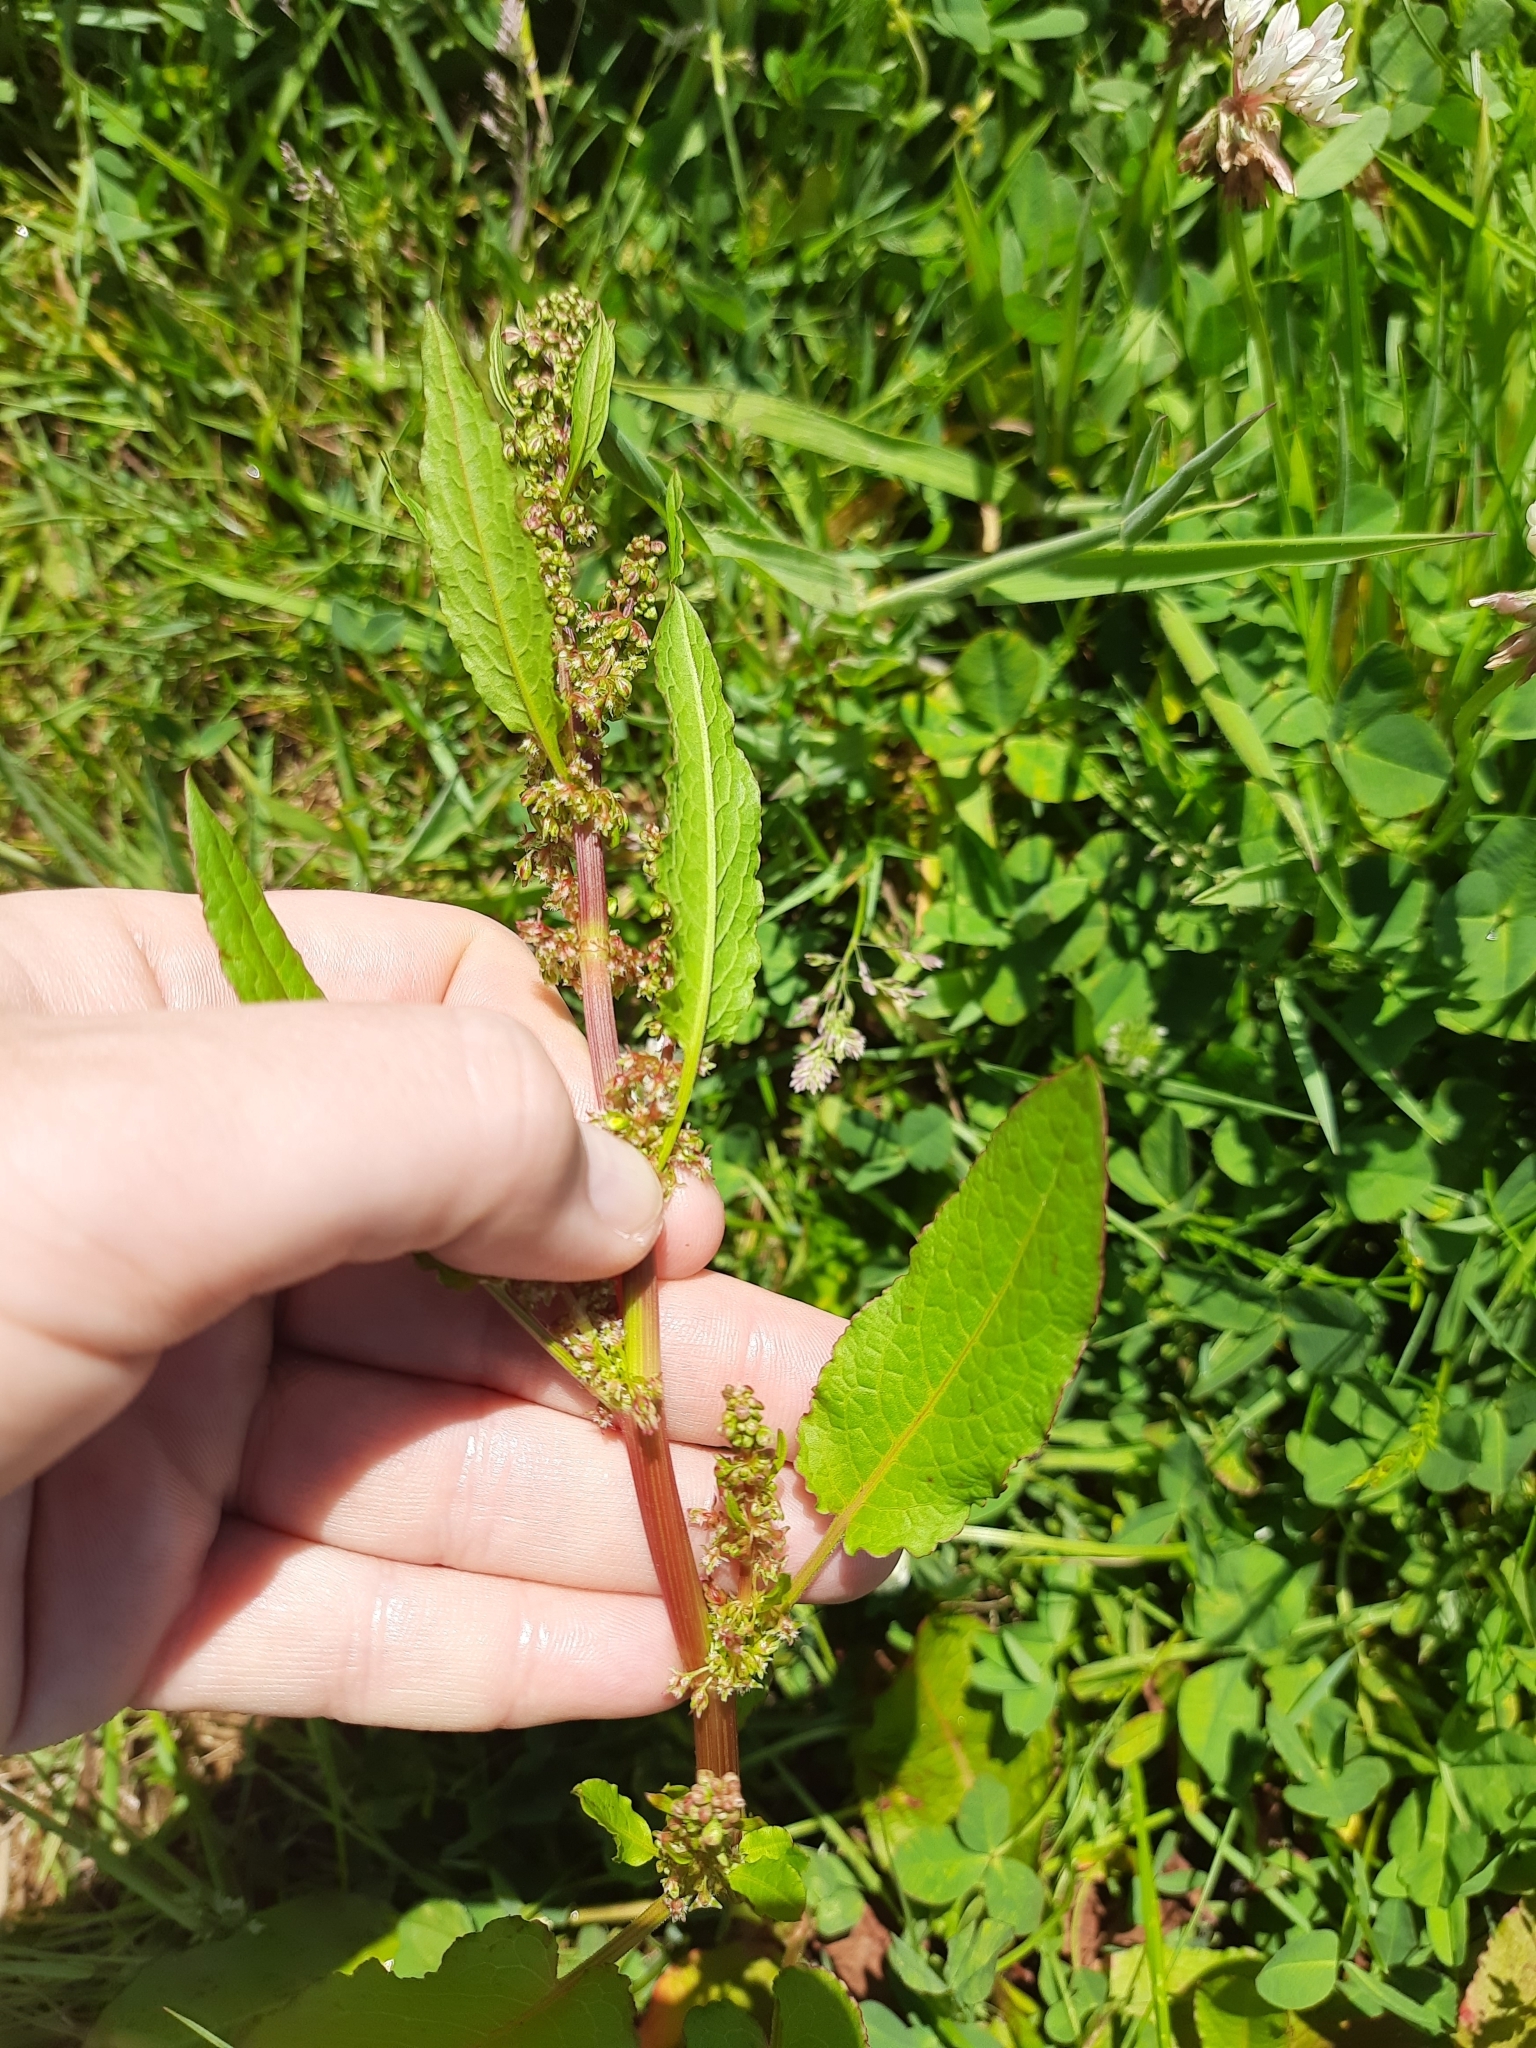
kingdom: Plantae
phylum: Tracheophyta
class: Magnoliopsida
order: Caryophyllales
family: Polygonaceae
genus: Rumex
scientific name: Rumex obtusifolius
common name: Bitter dock
